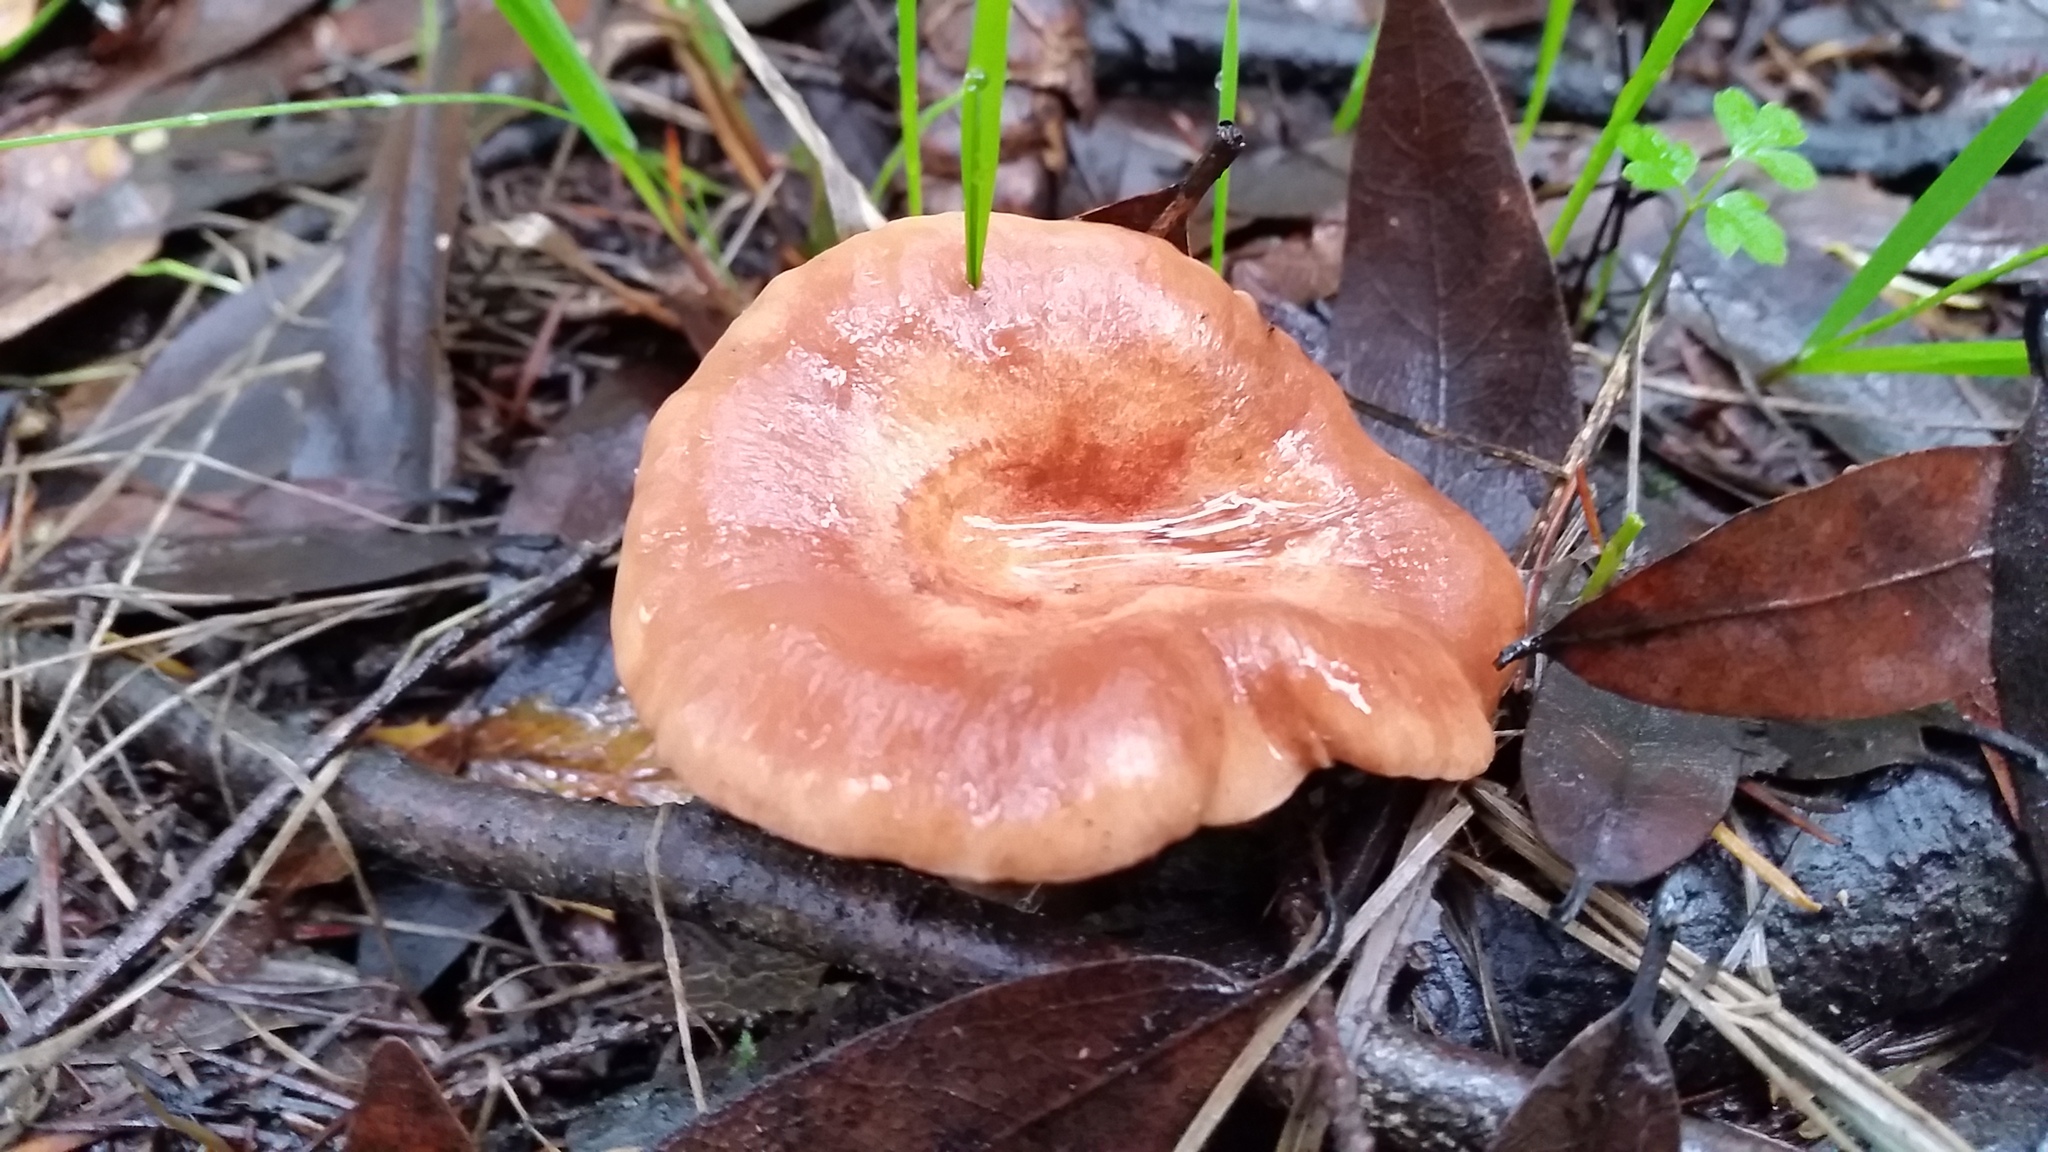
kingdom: Fungi
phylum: Basidiomycota
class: Agaricomycetes
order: Russulales
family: Russulaceae
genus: Lactarius
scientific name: Lactarius xanthogalactus
